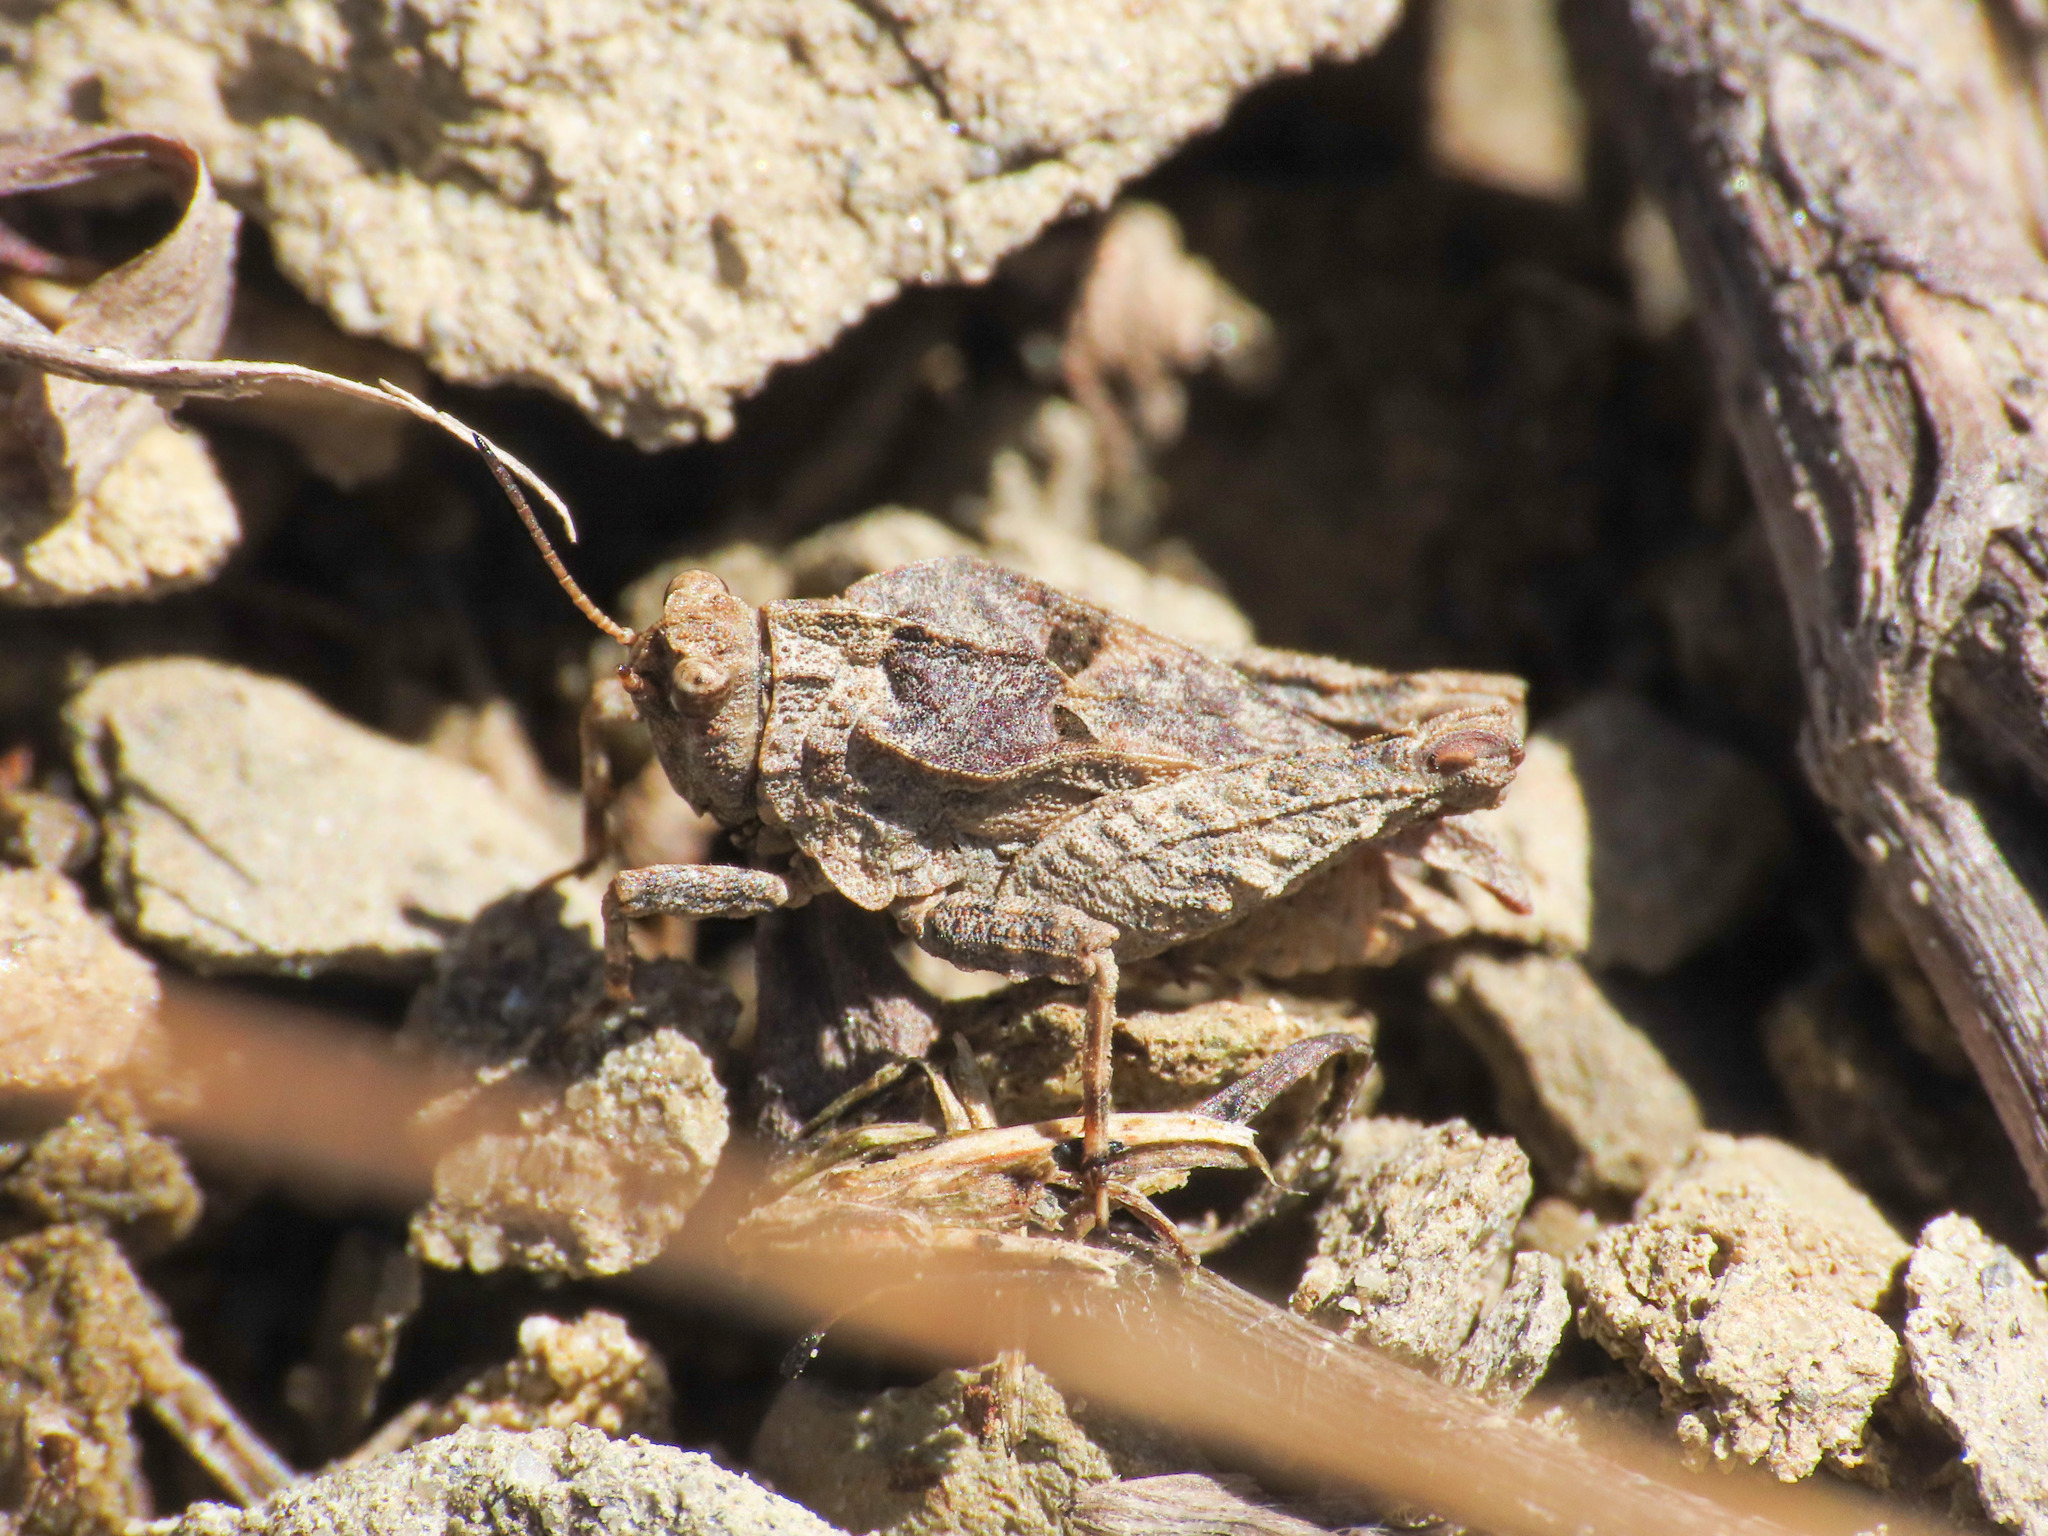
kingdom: Animalia
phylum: Arthropoda
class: Insecta
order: Orthoptera
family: Tetrigidae
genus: Tetrix
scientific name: Tetrix depressa
